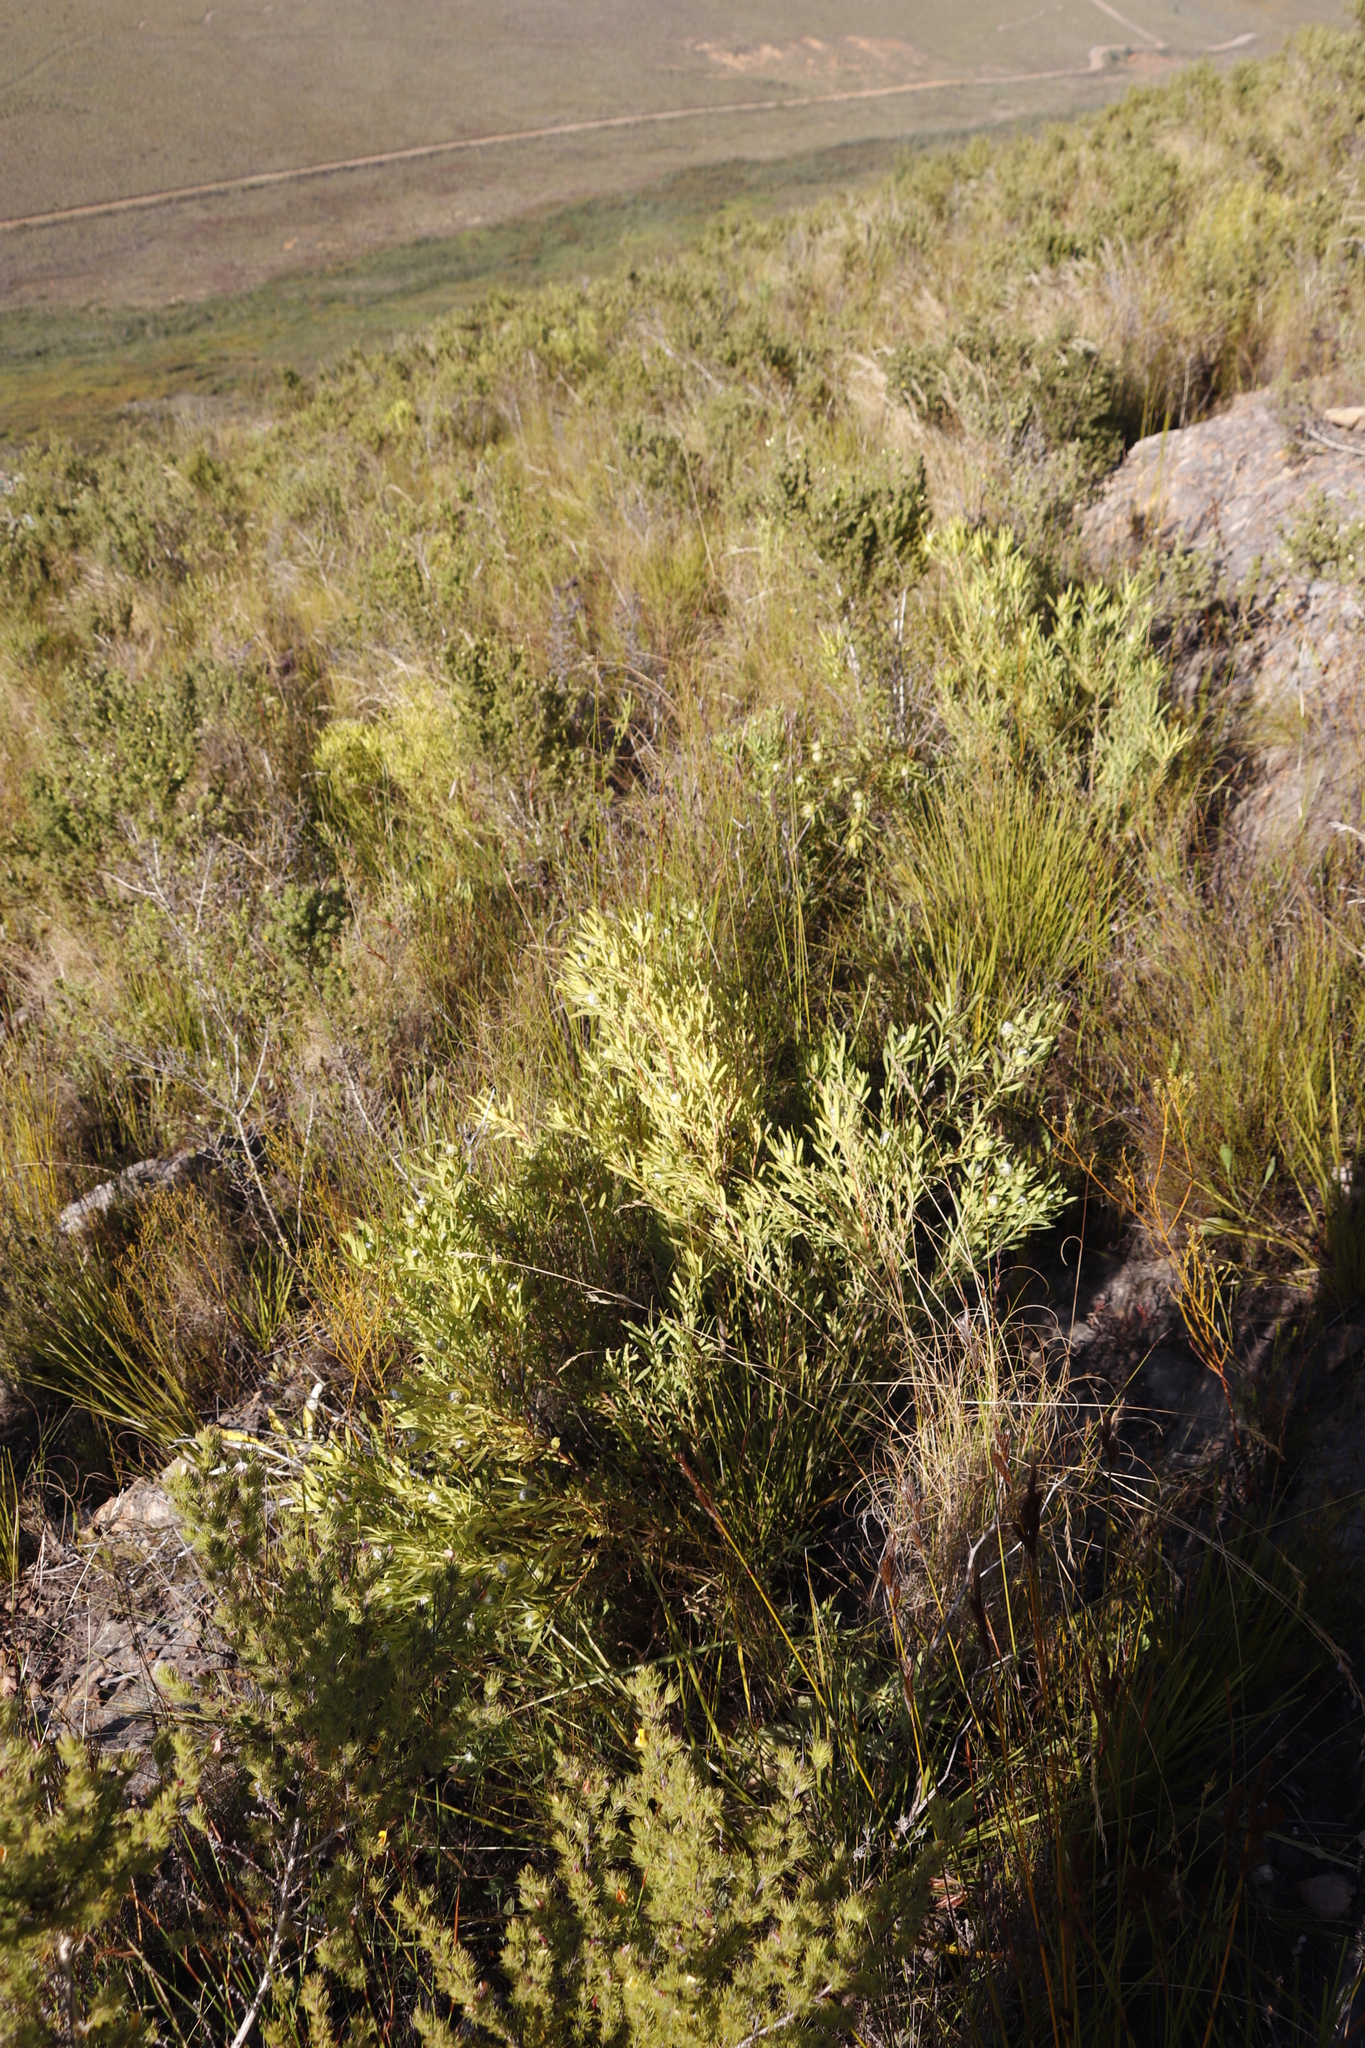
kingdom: Plantae
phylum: Tracheophyta
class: Magnoliopsida
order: Proteales
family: Proteaceae
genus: Leucadendron
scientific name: Leucadendron salignum
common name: Common sunshine conebush
